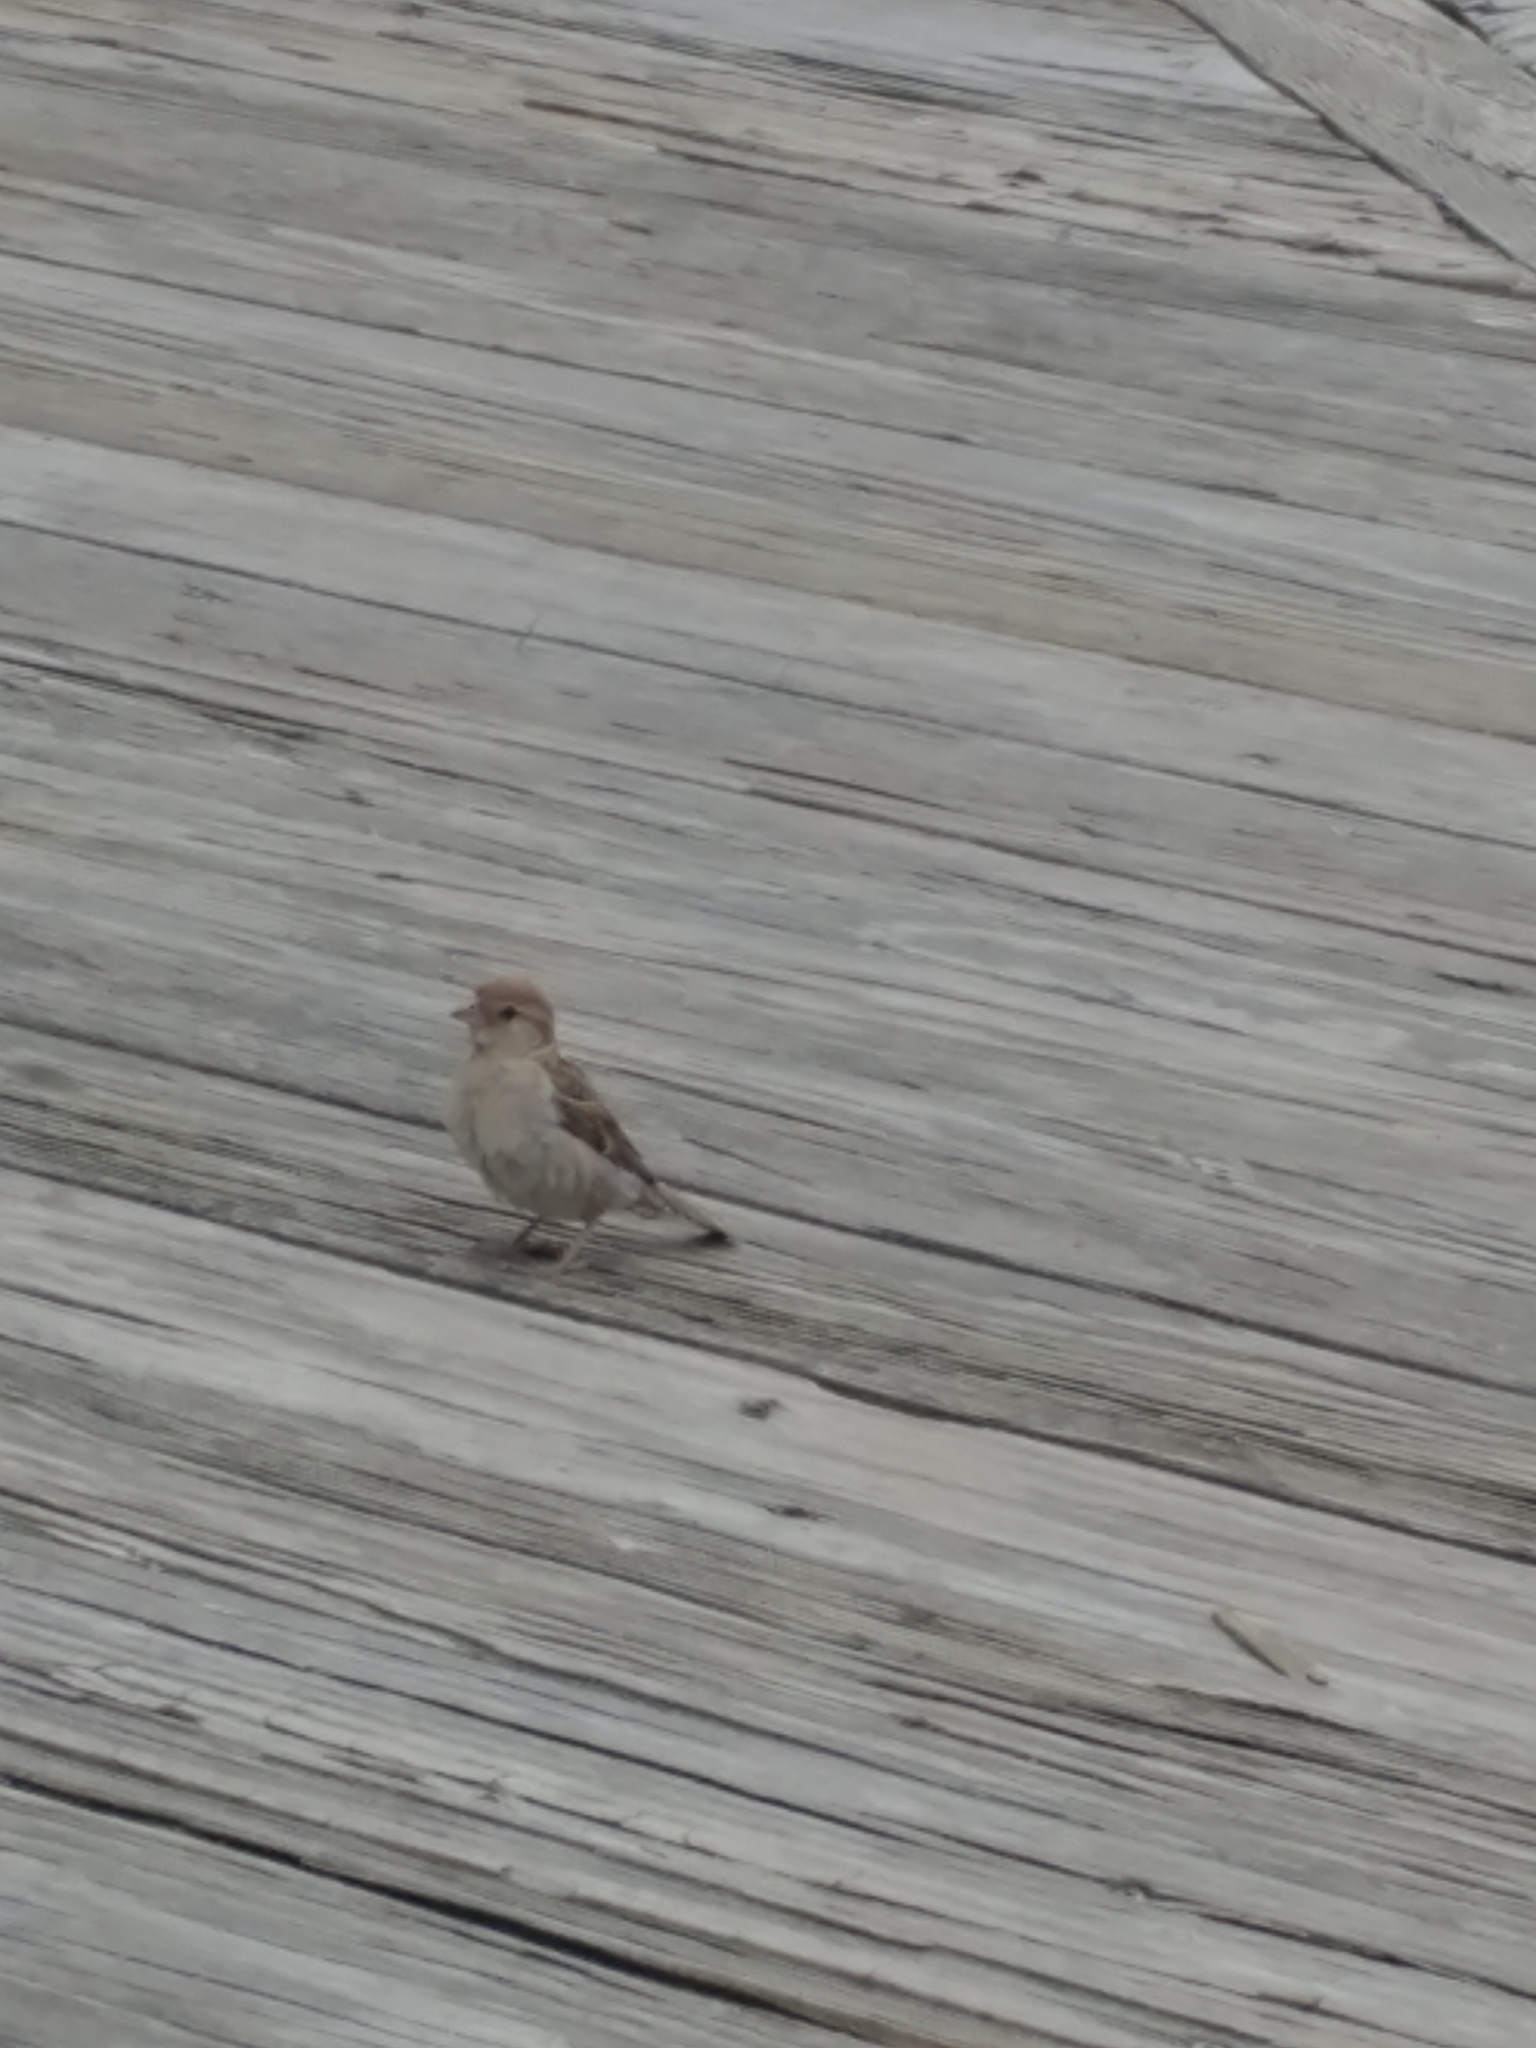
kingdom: Animalia
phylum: Chordata
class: Aves
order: Passeriformes
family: Passeridae
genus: Passer
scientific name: Passer domesticus
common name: House sparrow
